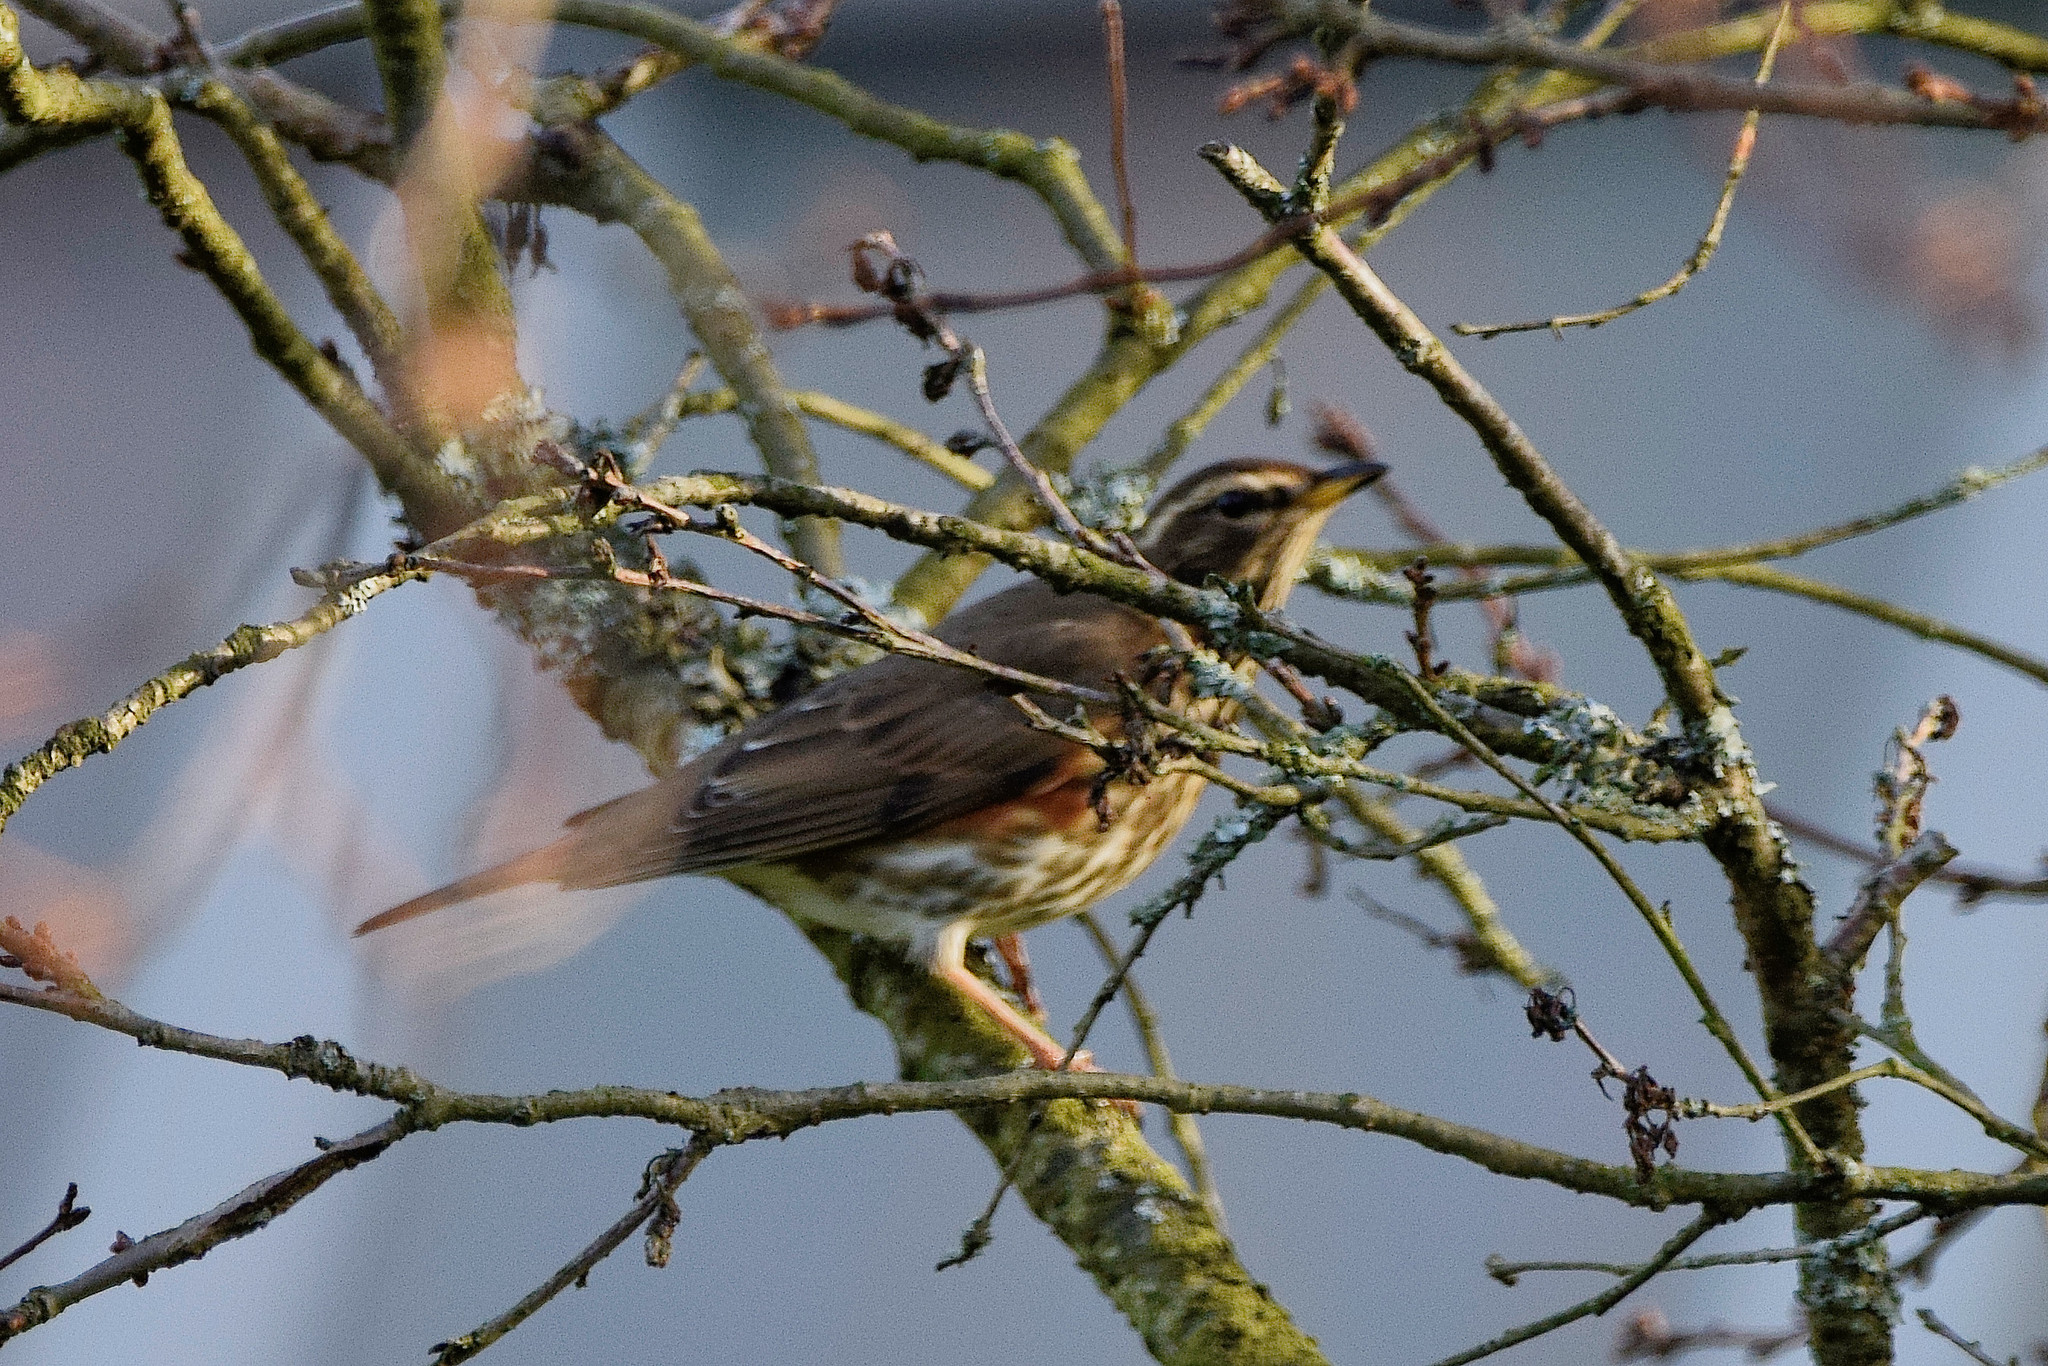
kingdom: Animalia
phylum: Chordata
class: Aves
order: Passeriformes
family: Turdidae
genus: Turdus
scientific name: Turdus iliacus
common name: Redwing
